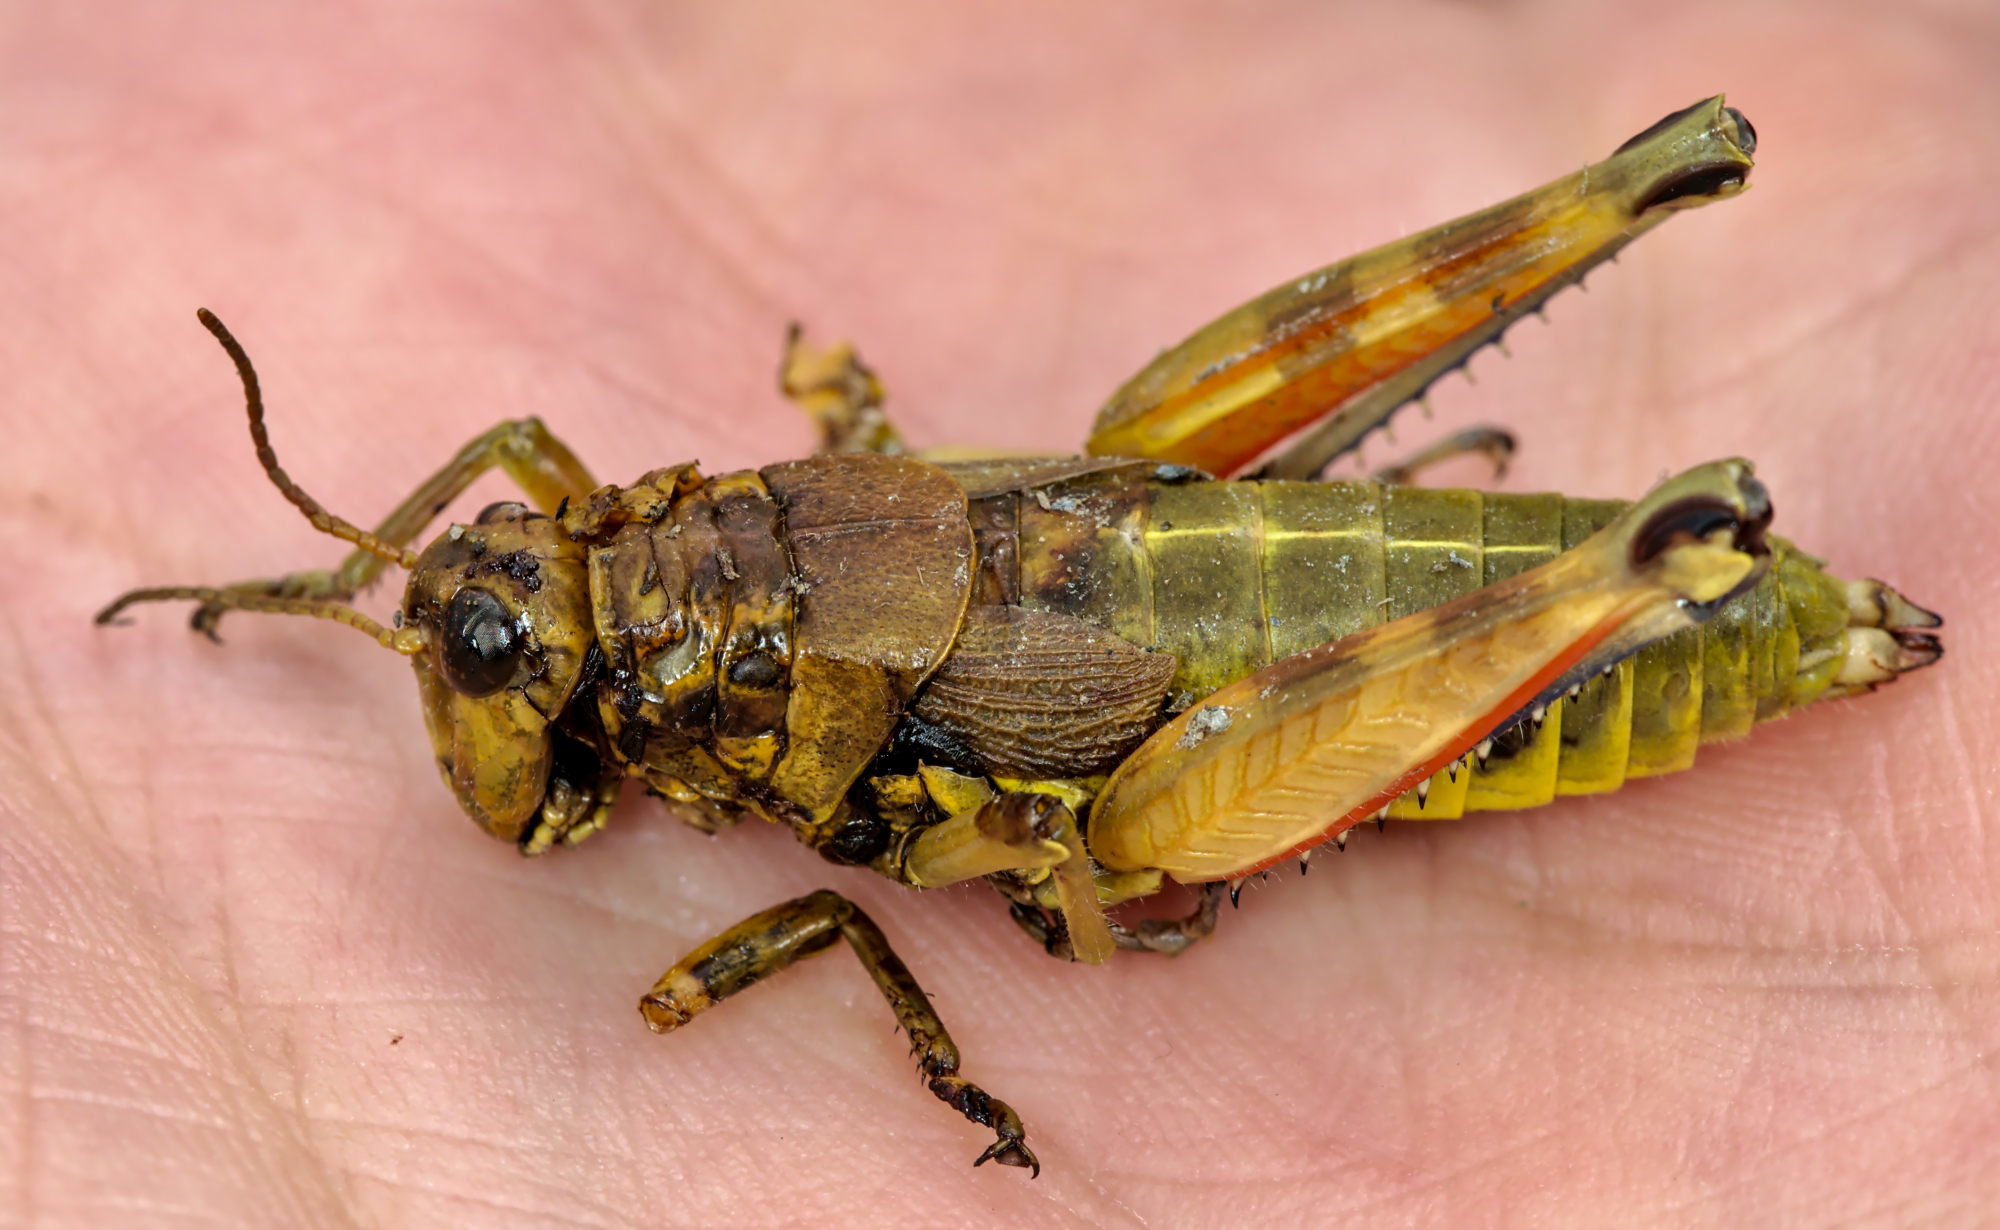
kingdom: Animalia
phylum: Arthropoda
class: Insecta
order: Orthoptera
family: Acrididae
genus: Podisma
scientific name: Podisma pedestris
